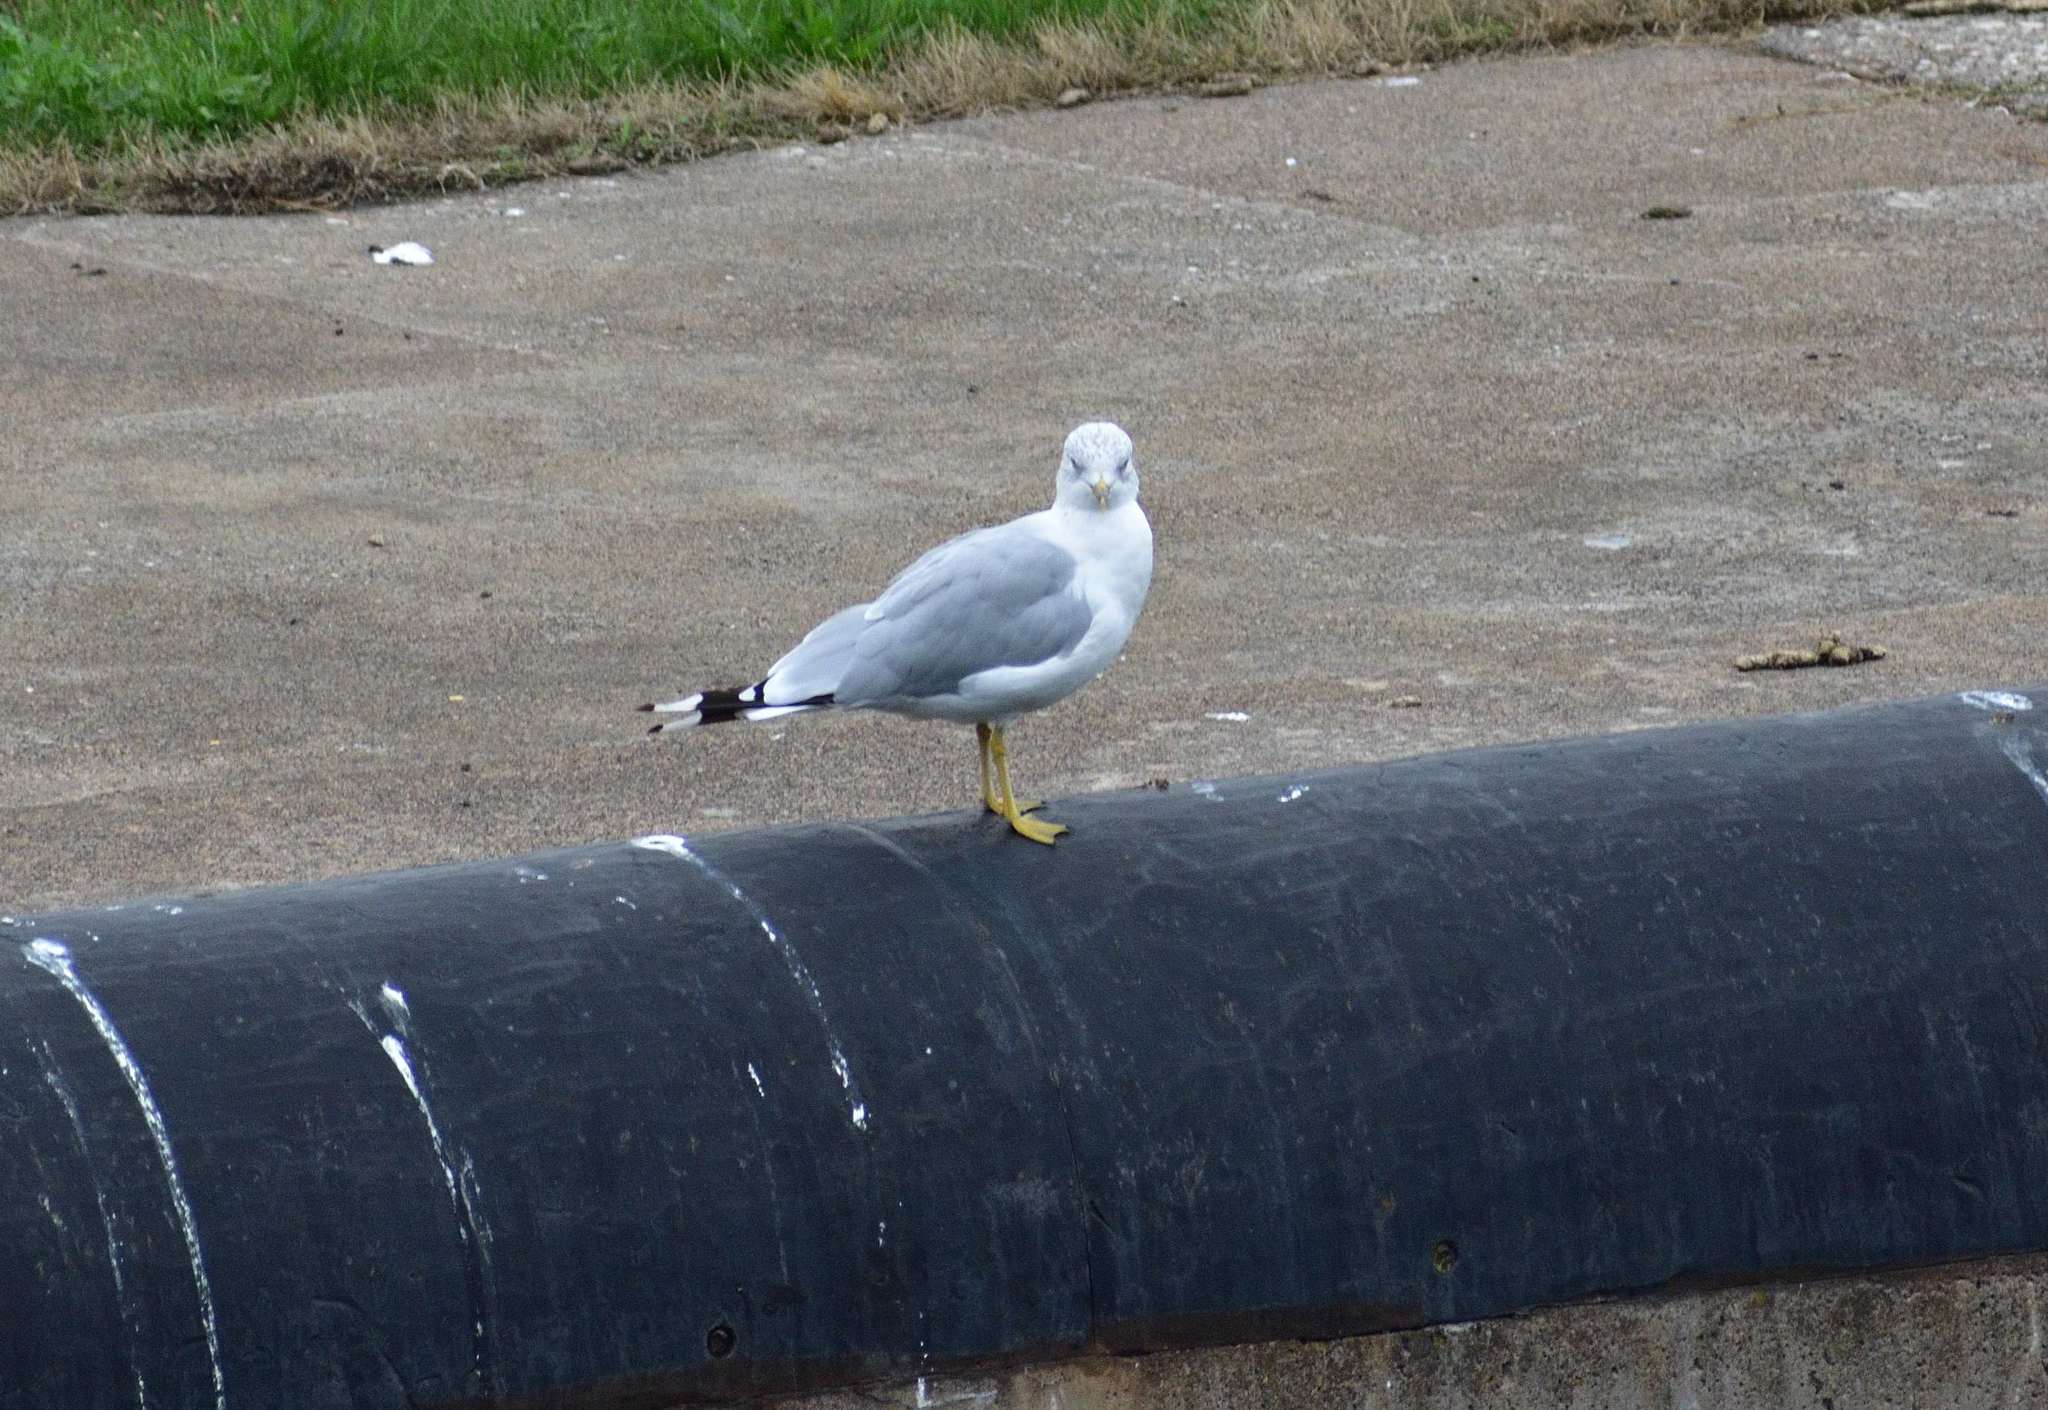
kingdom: Animalia
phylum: Chordata
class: Aves
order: Charadriiformes
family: Laridae
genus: Larus
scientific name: Larus delawarensis
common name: Ring-billed gull
